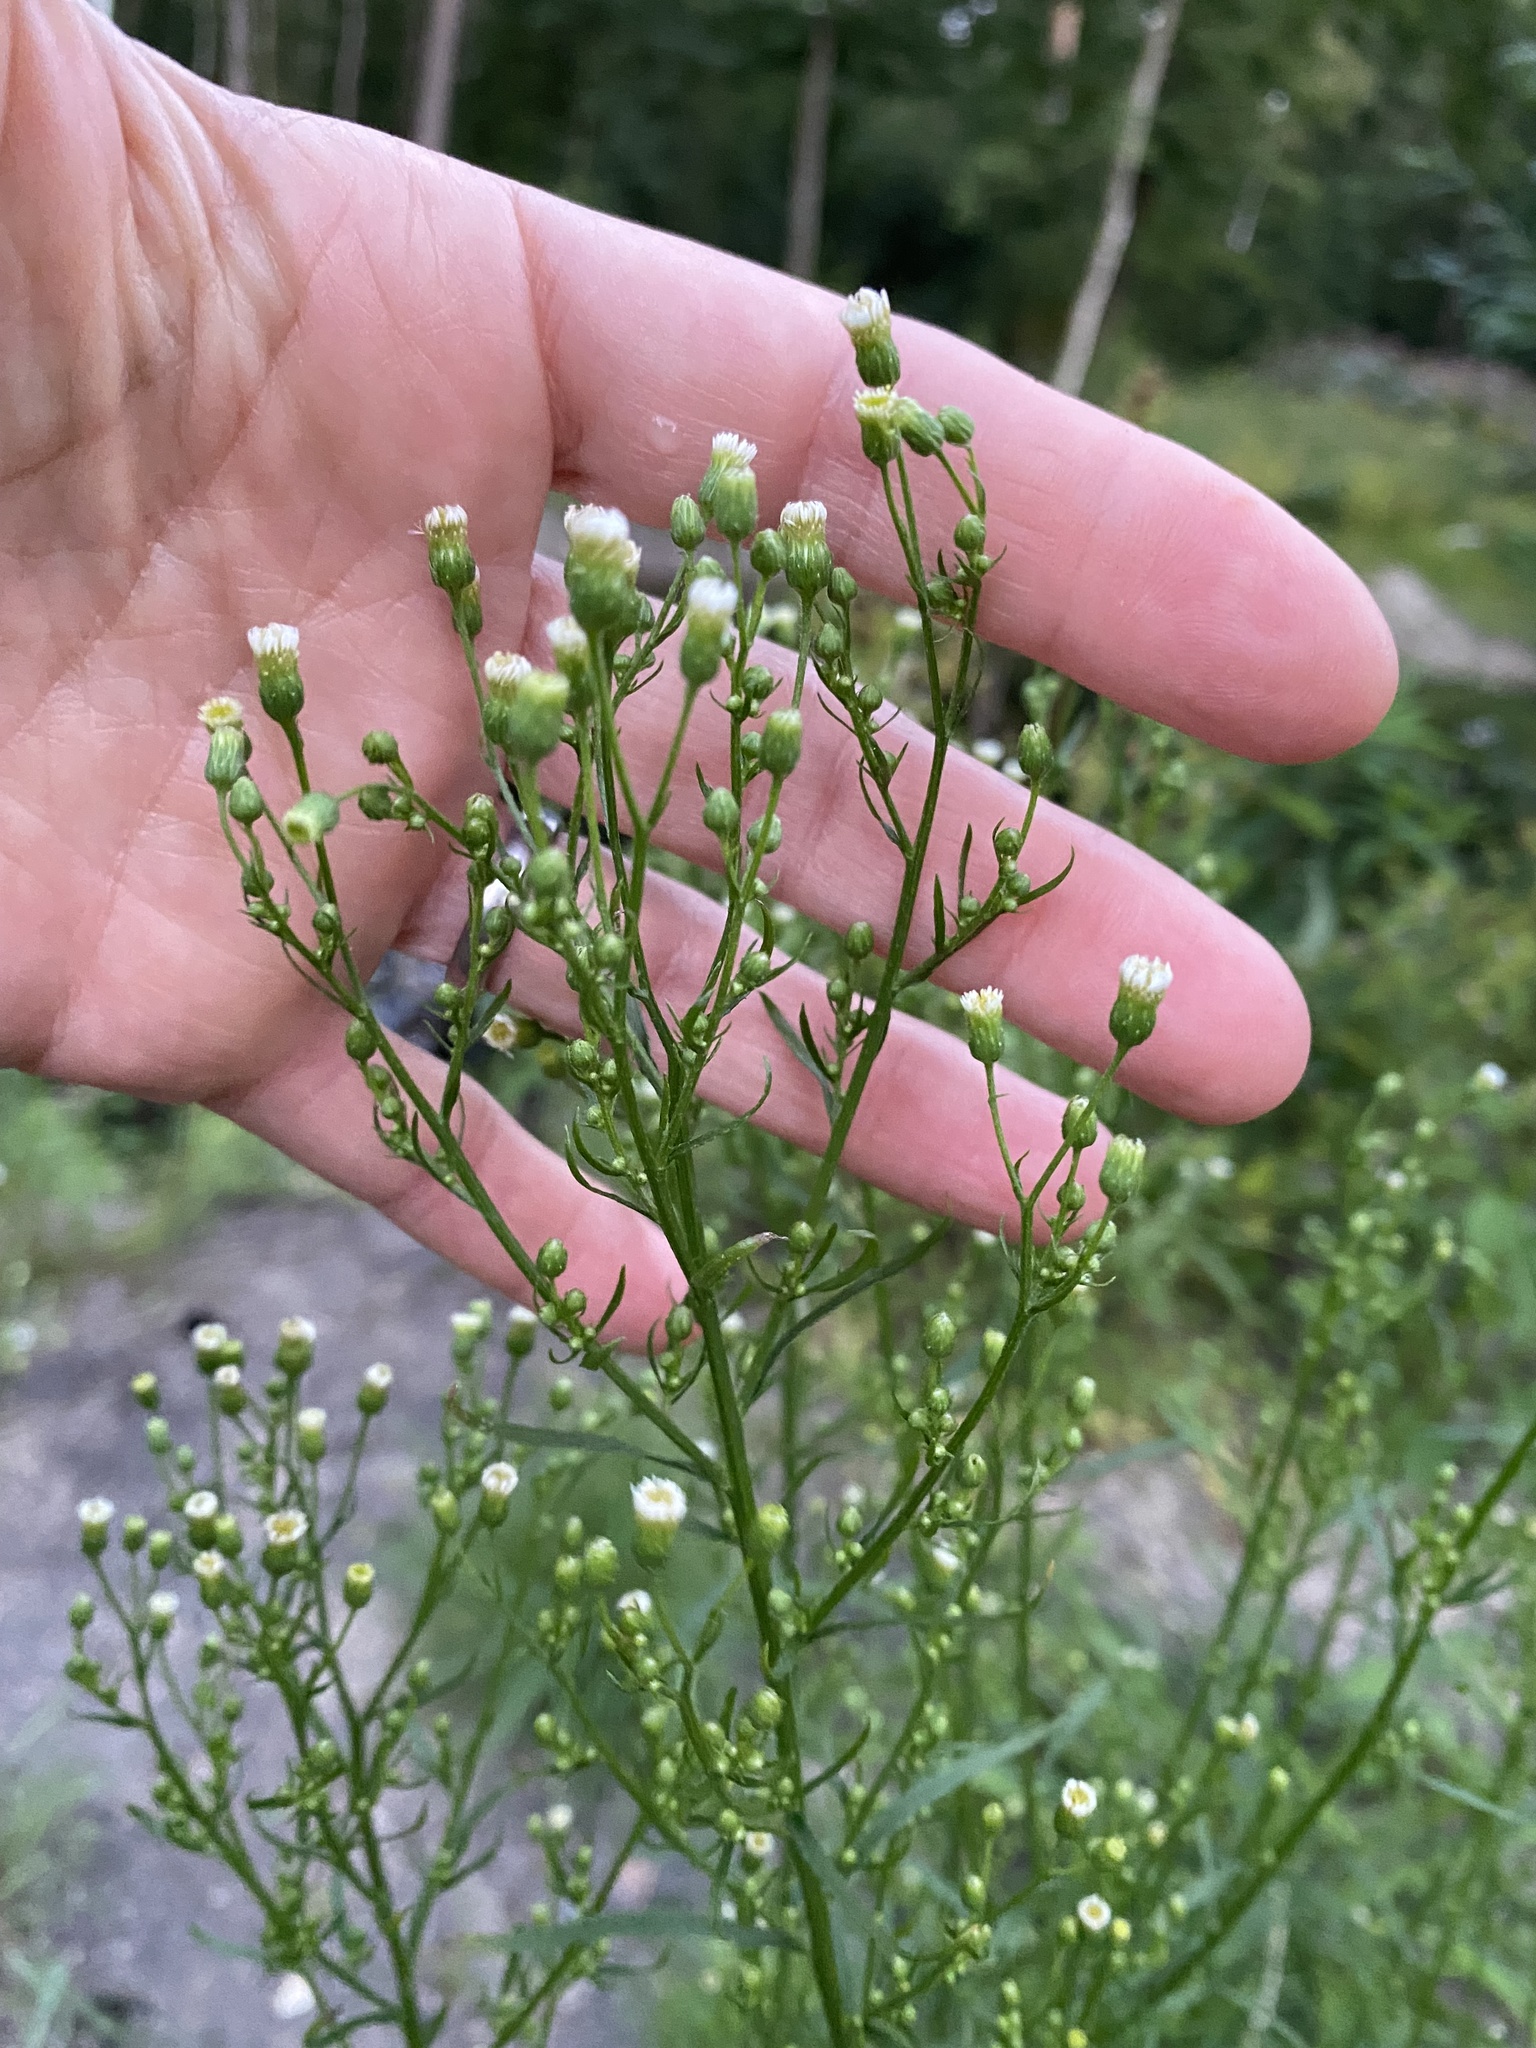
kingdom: Plantae
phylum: Tracheophyta
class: Magnoliopsida
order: Asterales
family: Asteraceae
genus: Erigeron
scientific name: Erigeron canadensis
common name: Canadian fleabane
